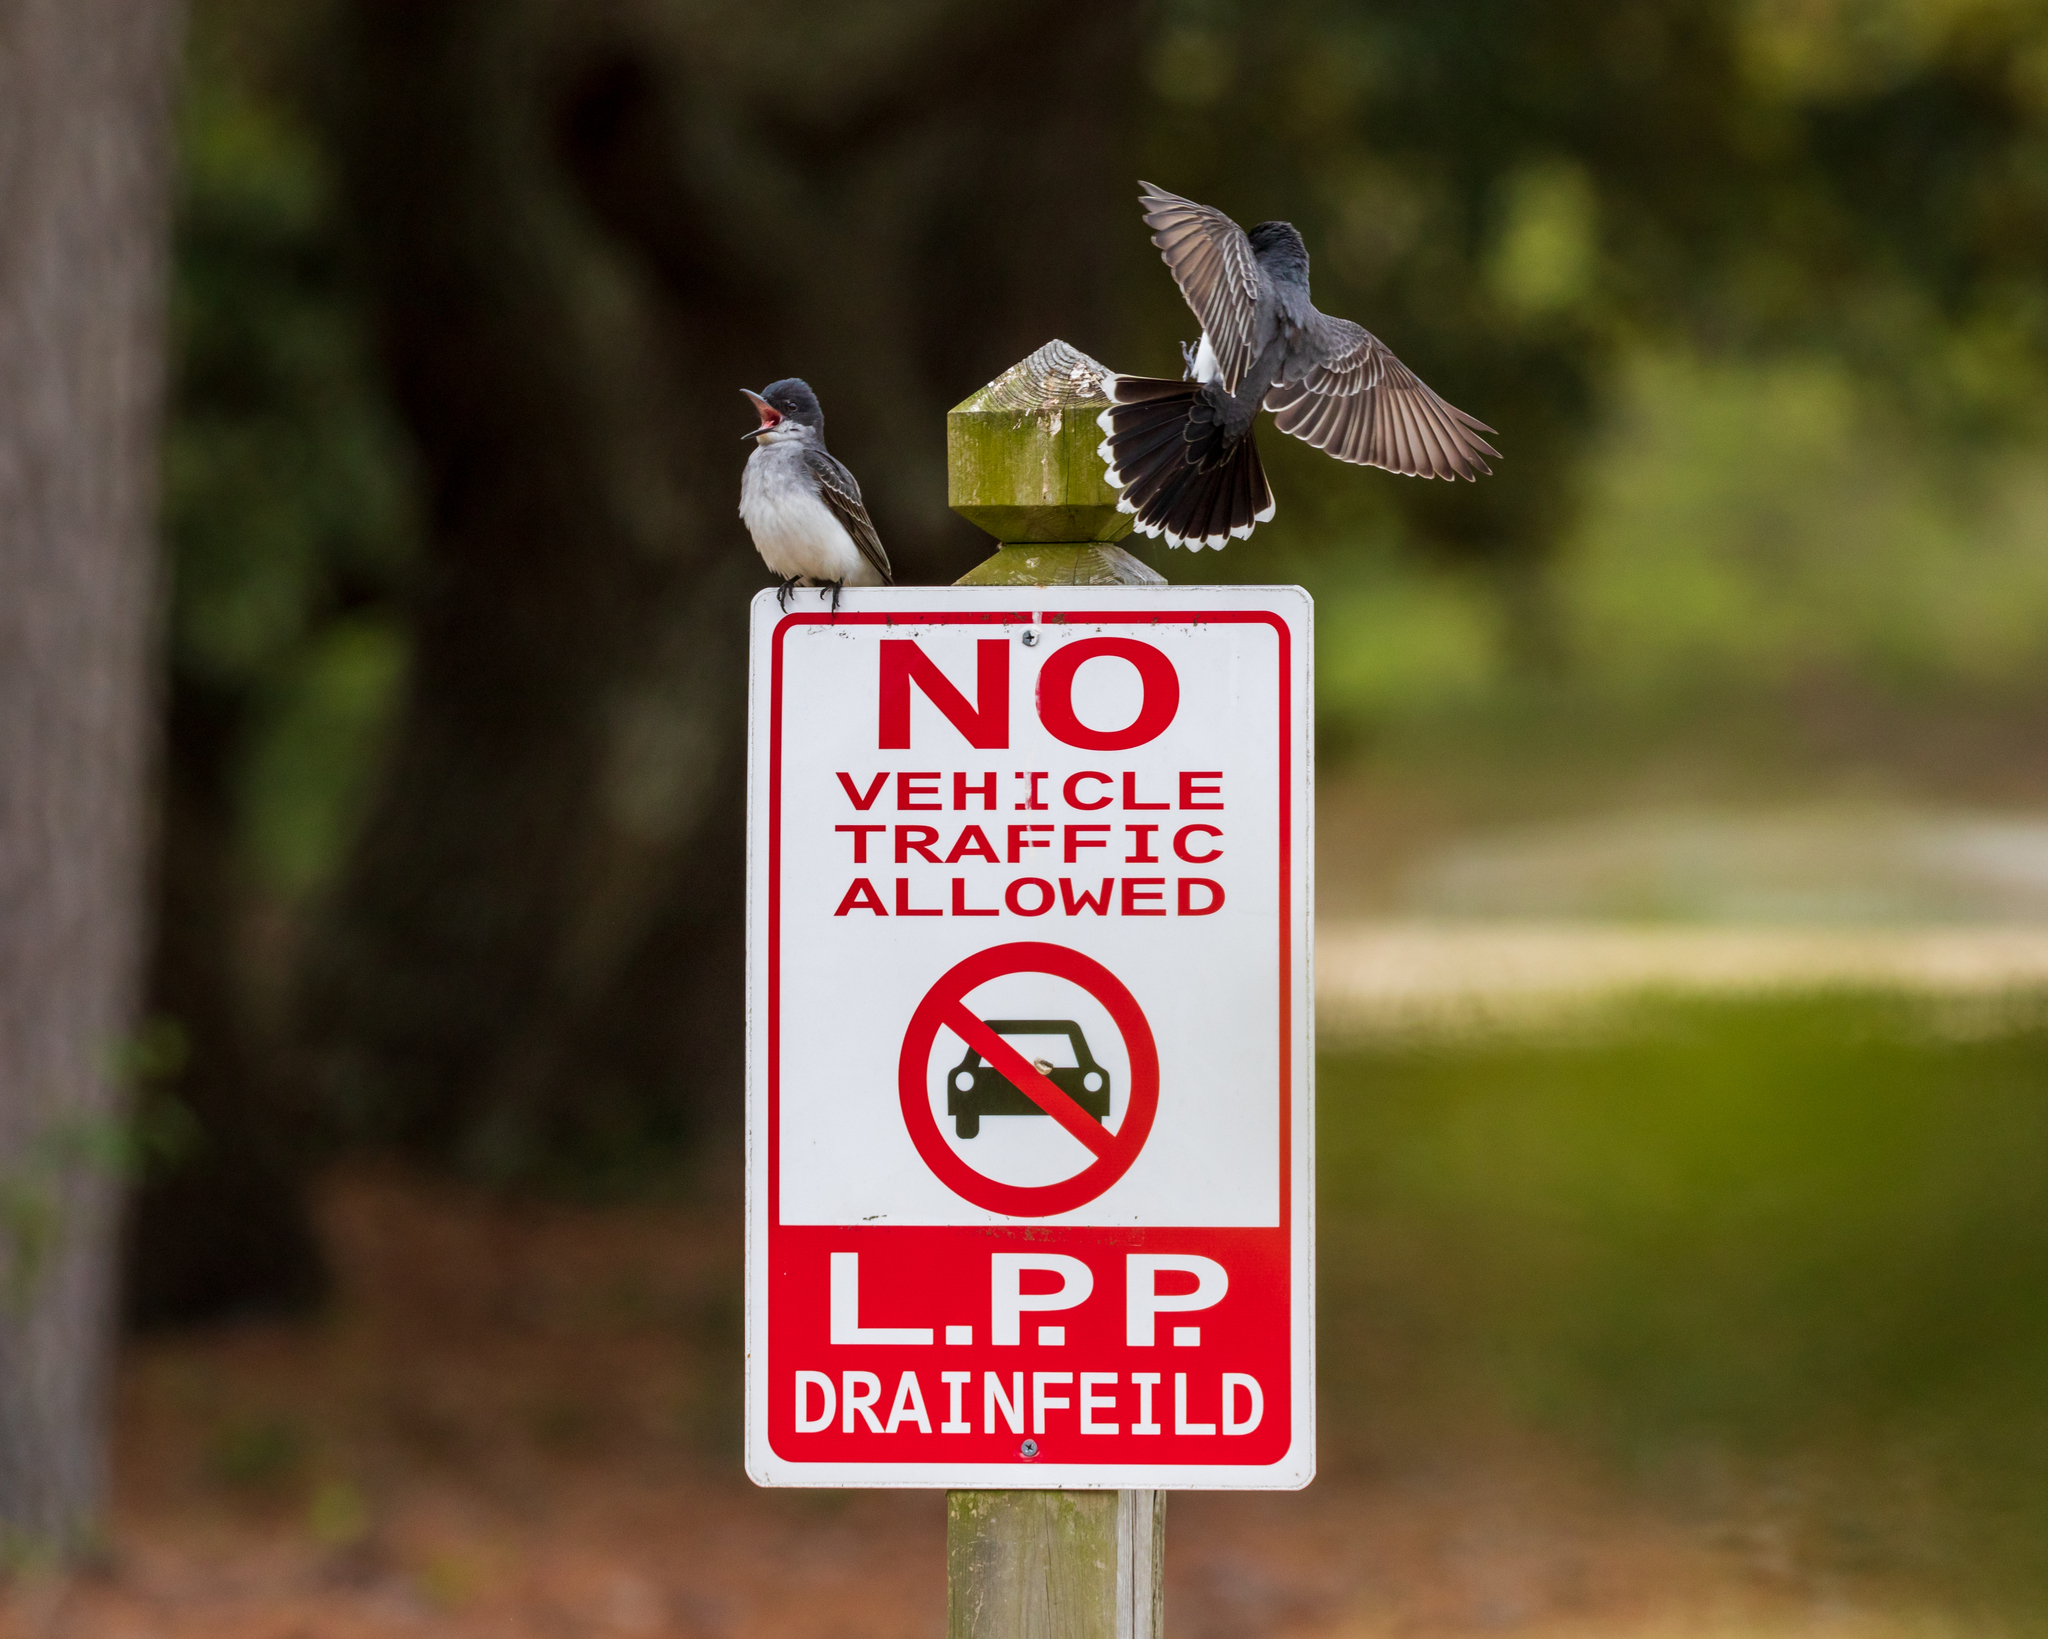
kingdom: Animalia
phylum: Chordata
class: Aves
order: Passeriformes
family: Tyrannidae
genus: Tyrannus
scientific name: Tyrannus tyrannus
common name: Eastern kingbird
